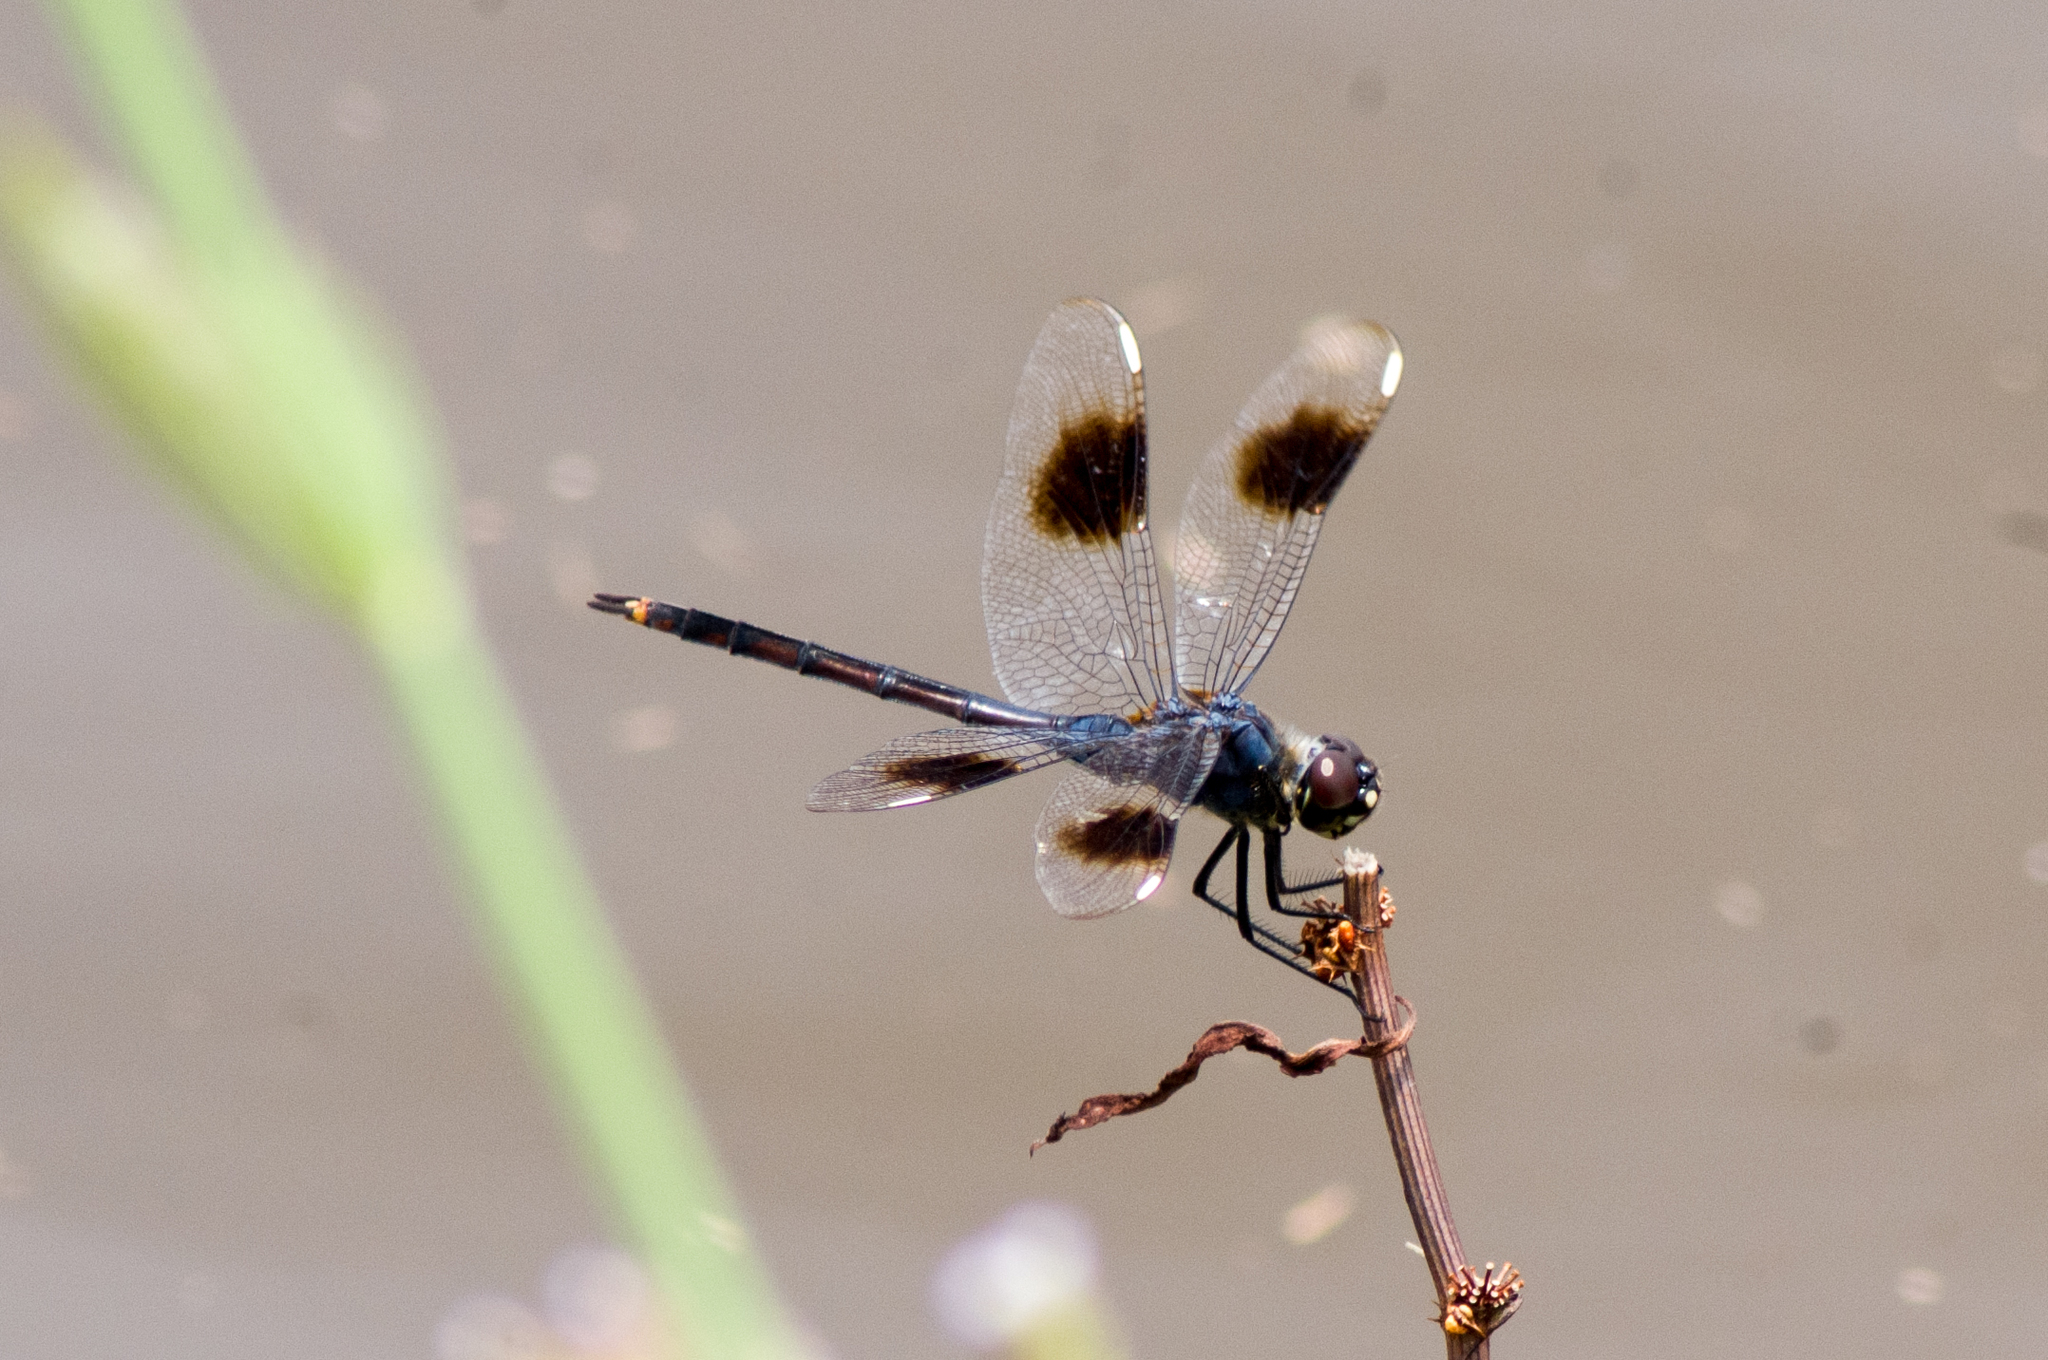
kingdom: Animalia
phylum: Arthropoda
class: Insecta
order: Odonata
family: Libellulidae
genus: Brachymesia
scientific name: Brachymesia gravida
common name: Four-spotted pennant
